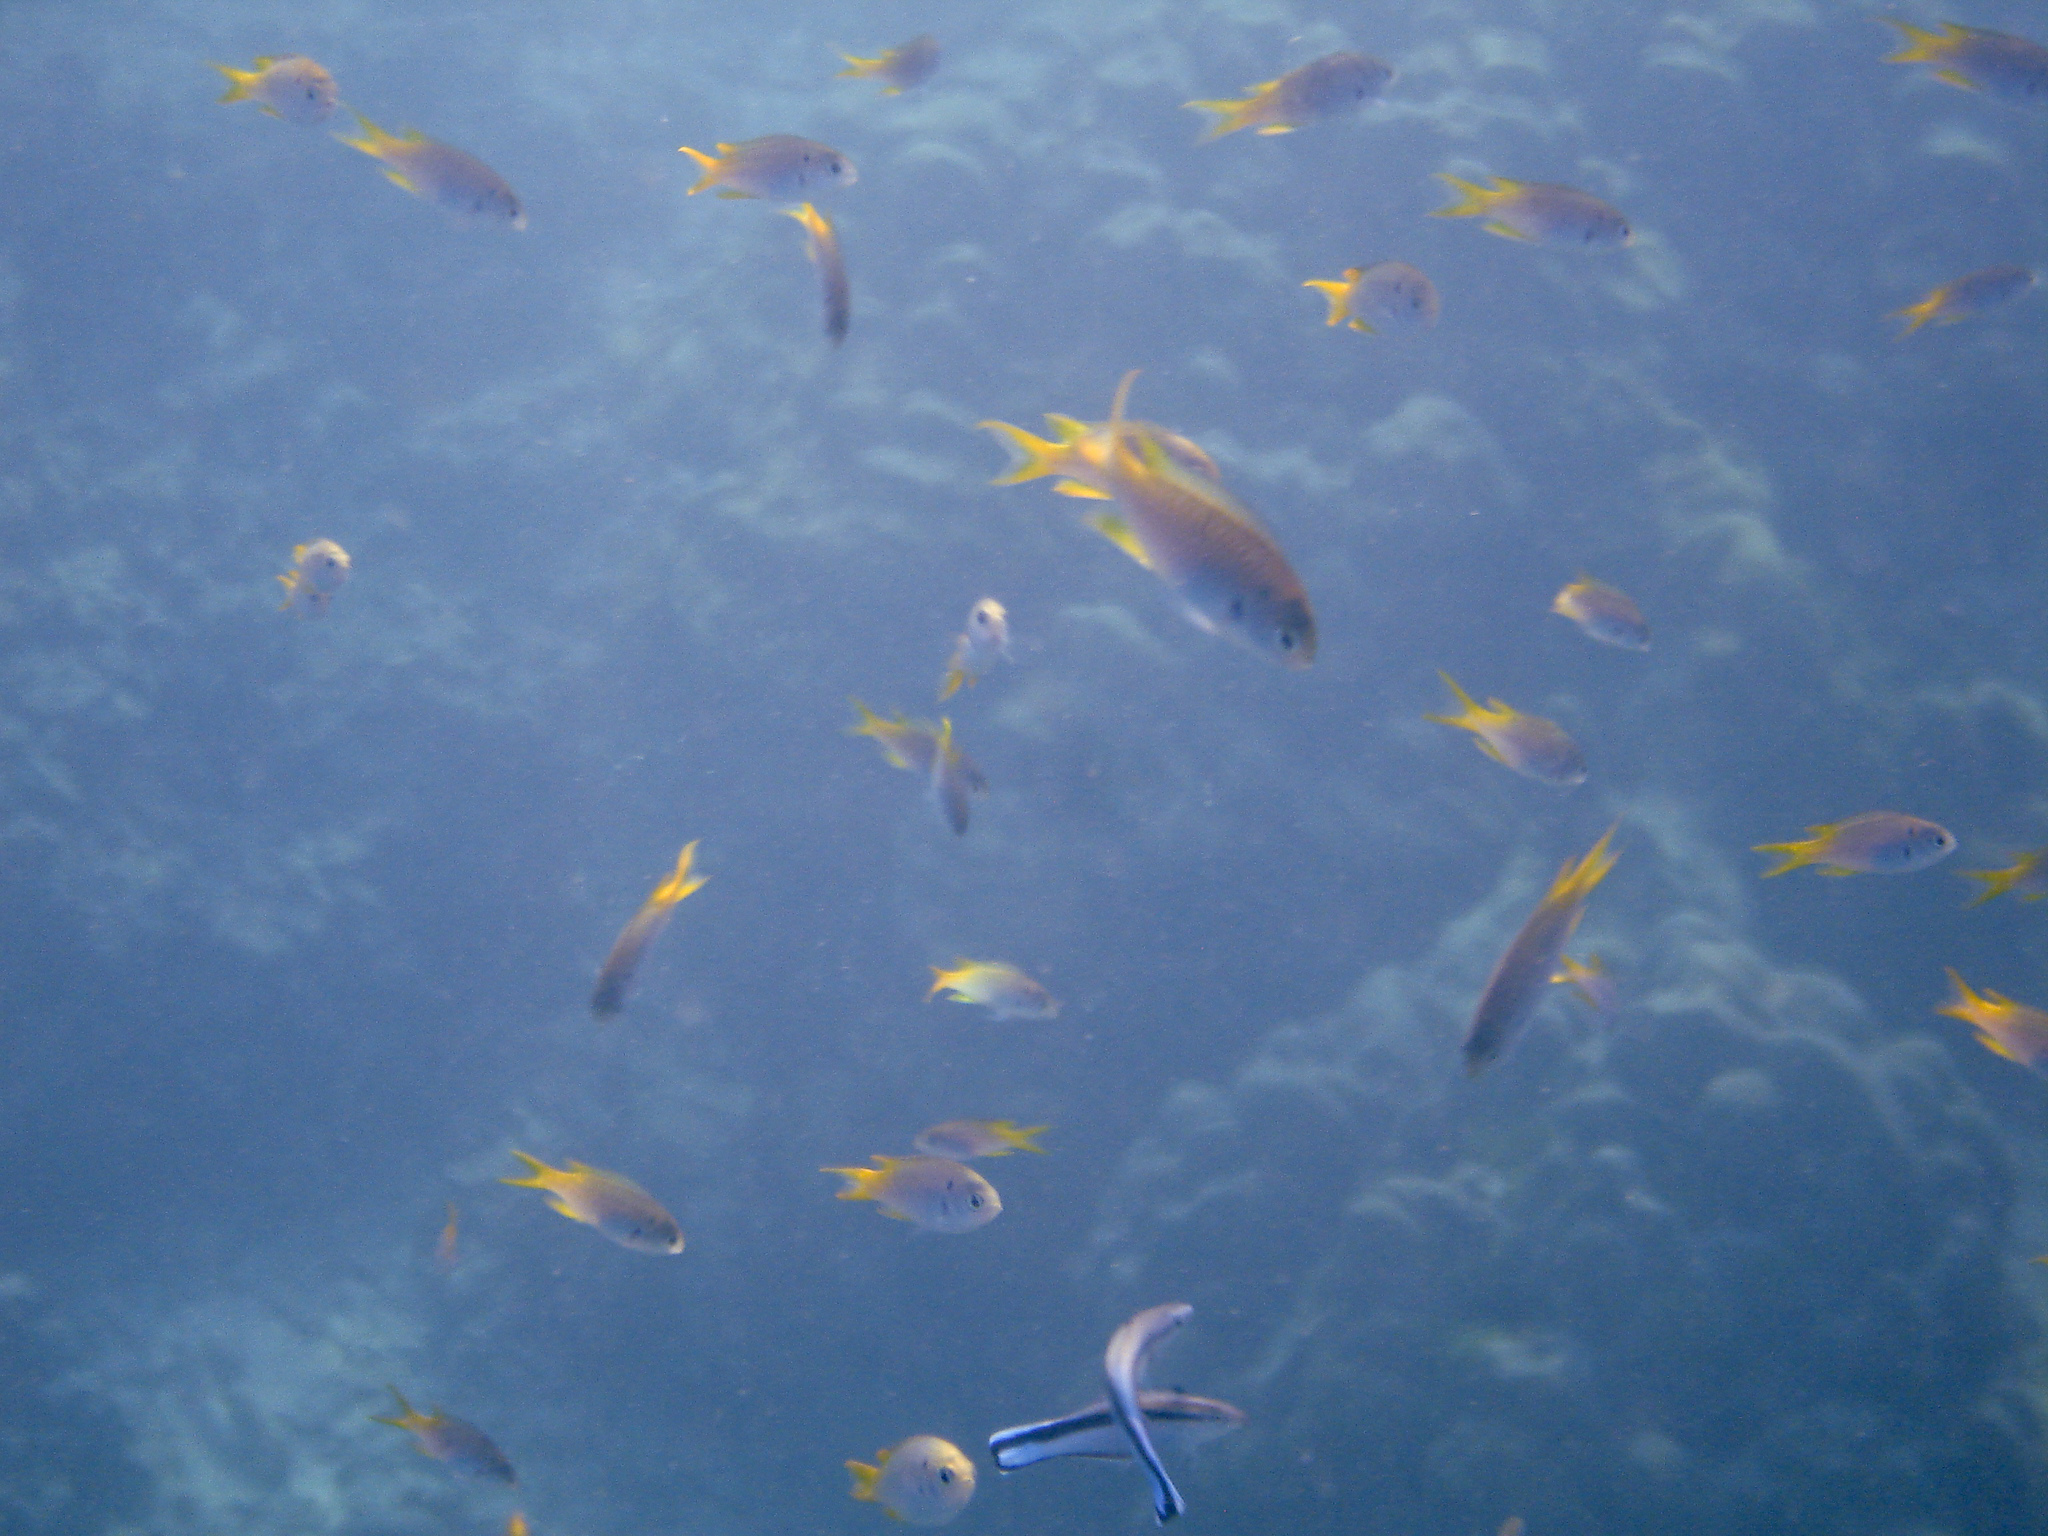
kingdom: Animalia
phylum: Chordata
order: Perciformes
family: Pomacentridae
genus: Neopomacentrus
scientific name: Neopomacentrus azysron
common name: Yellow-tail damsel
